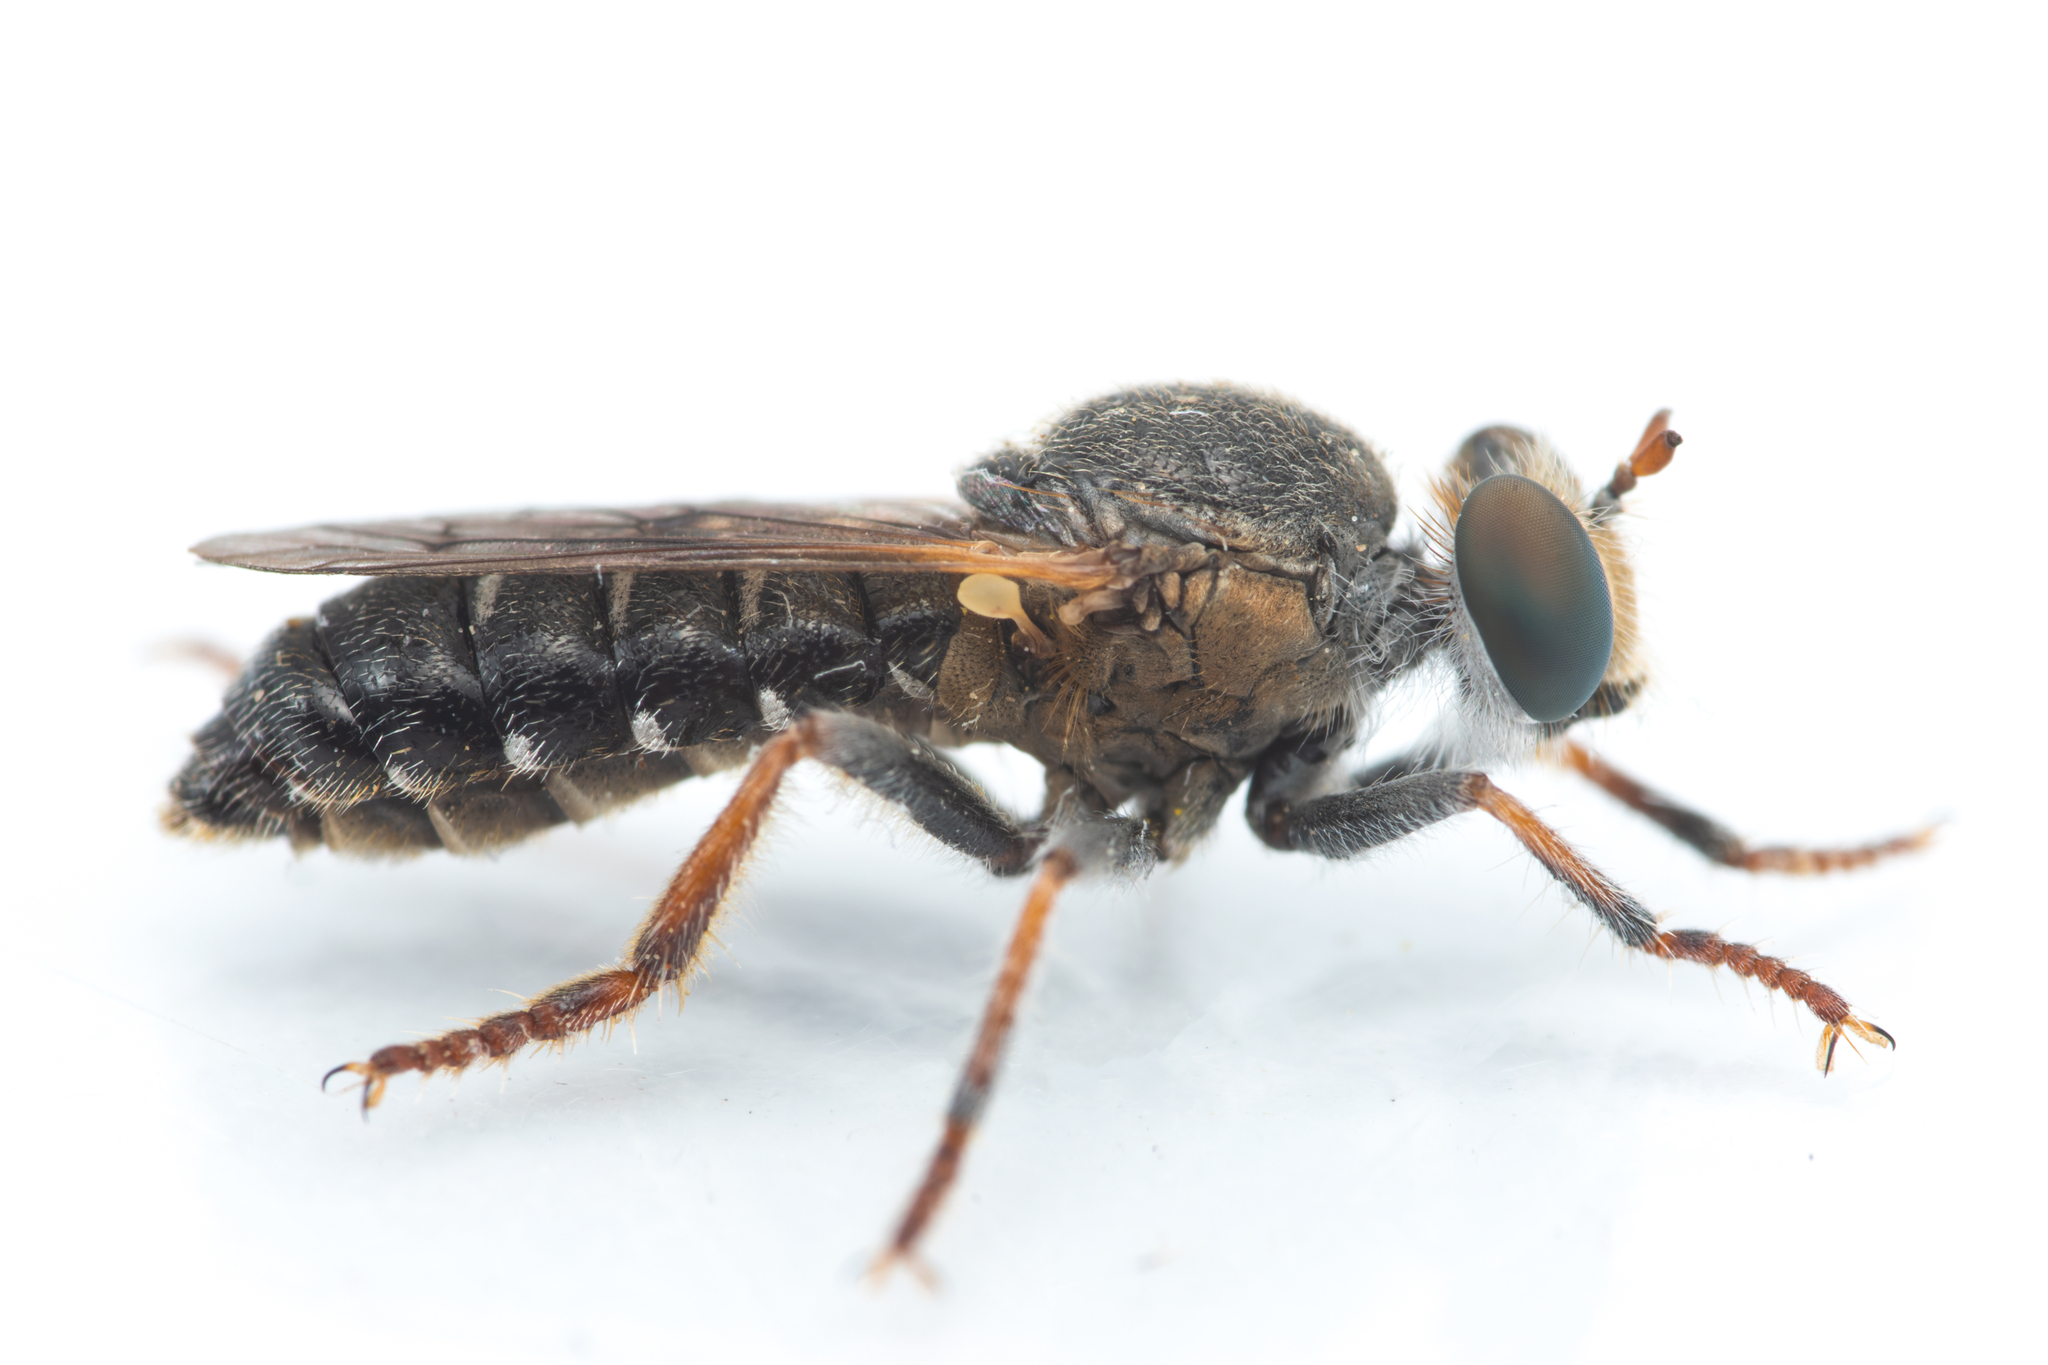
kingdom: Animalia
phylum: Arthropoda
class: Insecta
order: Diptera
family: Asilidae
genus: Glyphotriclis
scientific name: Glyphotriclis ornatus
